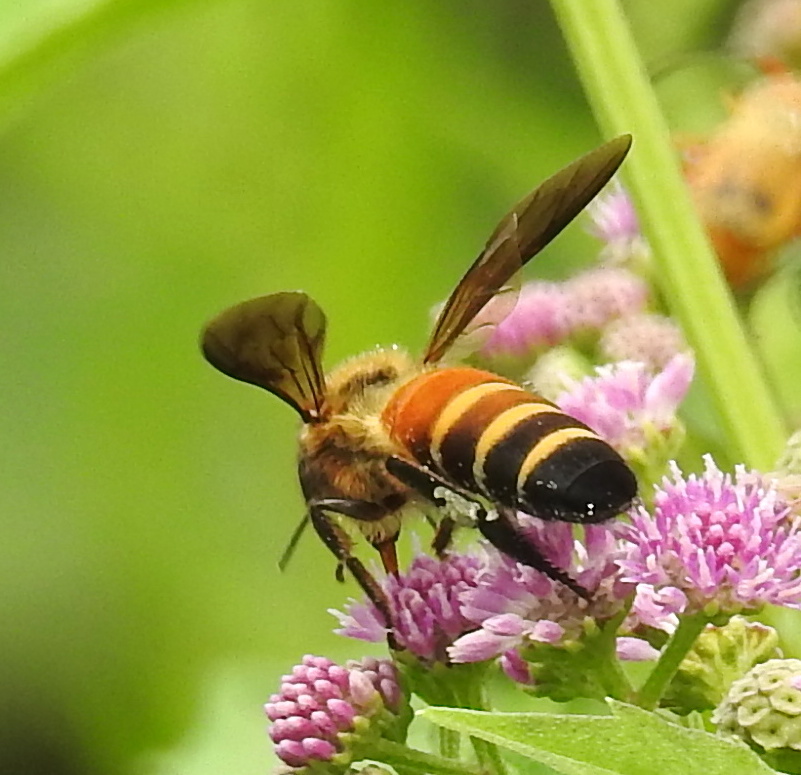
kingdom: Animalia
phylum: Arthropoda
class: Insecta
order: Hymenoptera
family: Apidae
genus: Apis
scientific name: Apis dorsata
